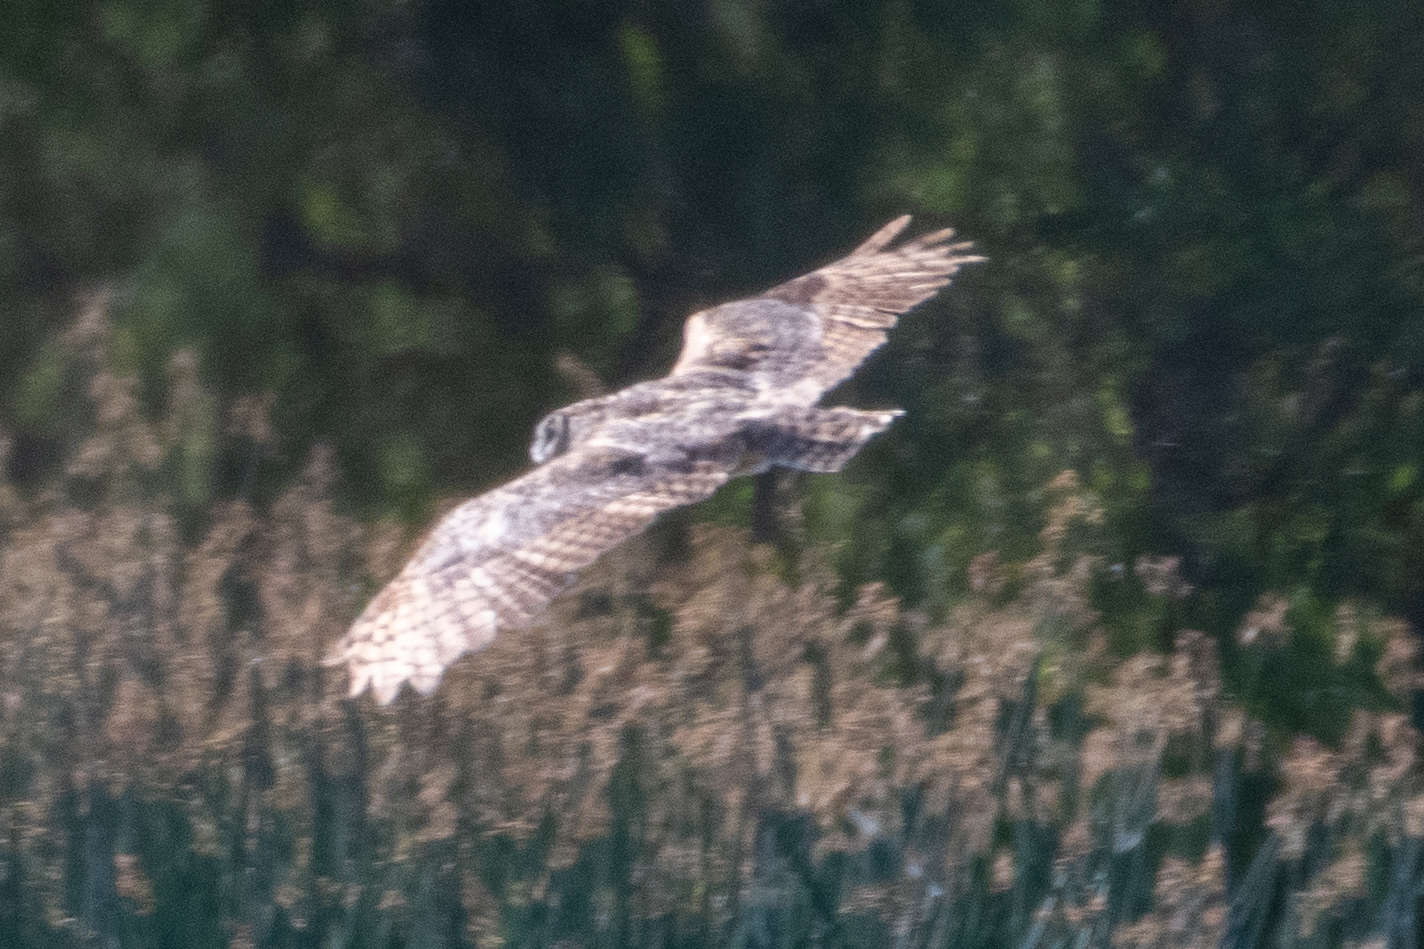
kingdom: Animalia
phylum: Chordata
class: Aves
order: Strigiformes
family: Strigidae
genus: Bubo
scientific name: Bubo virginianus
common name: Great horned owl
